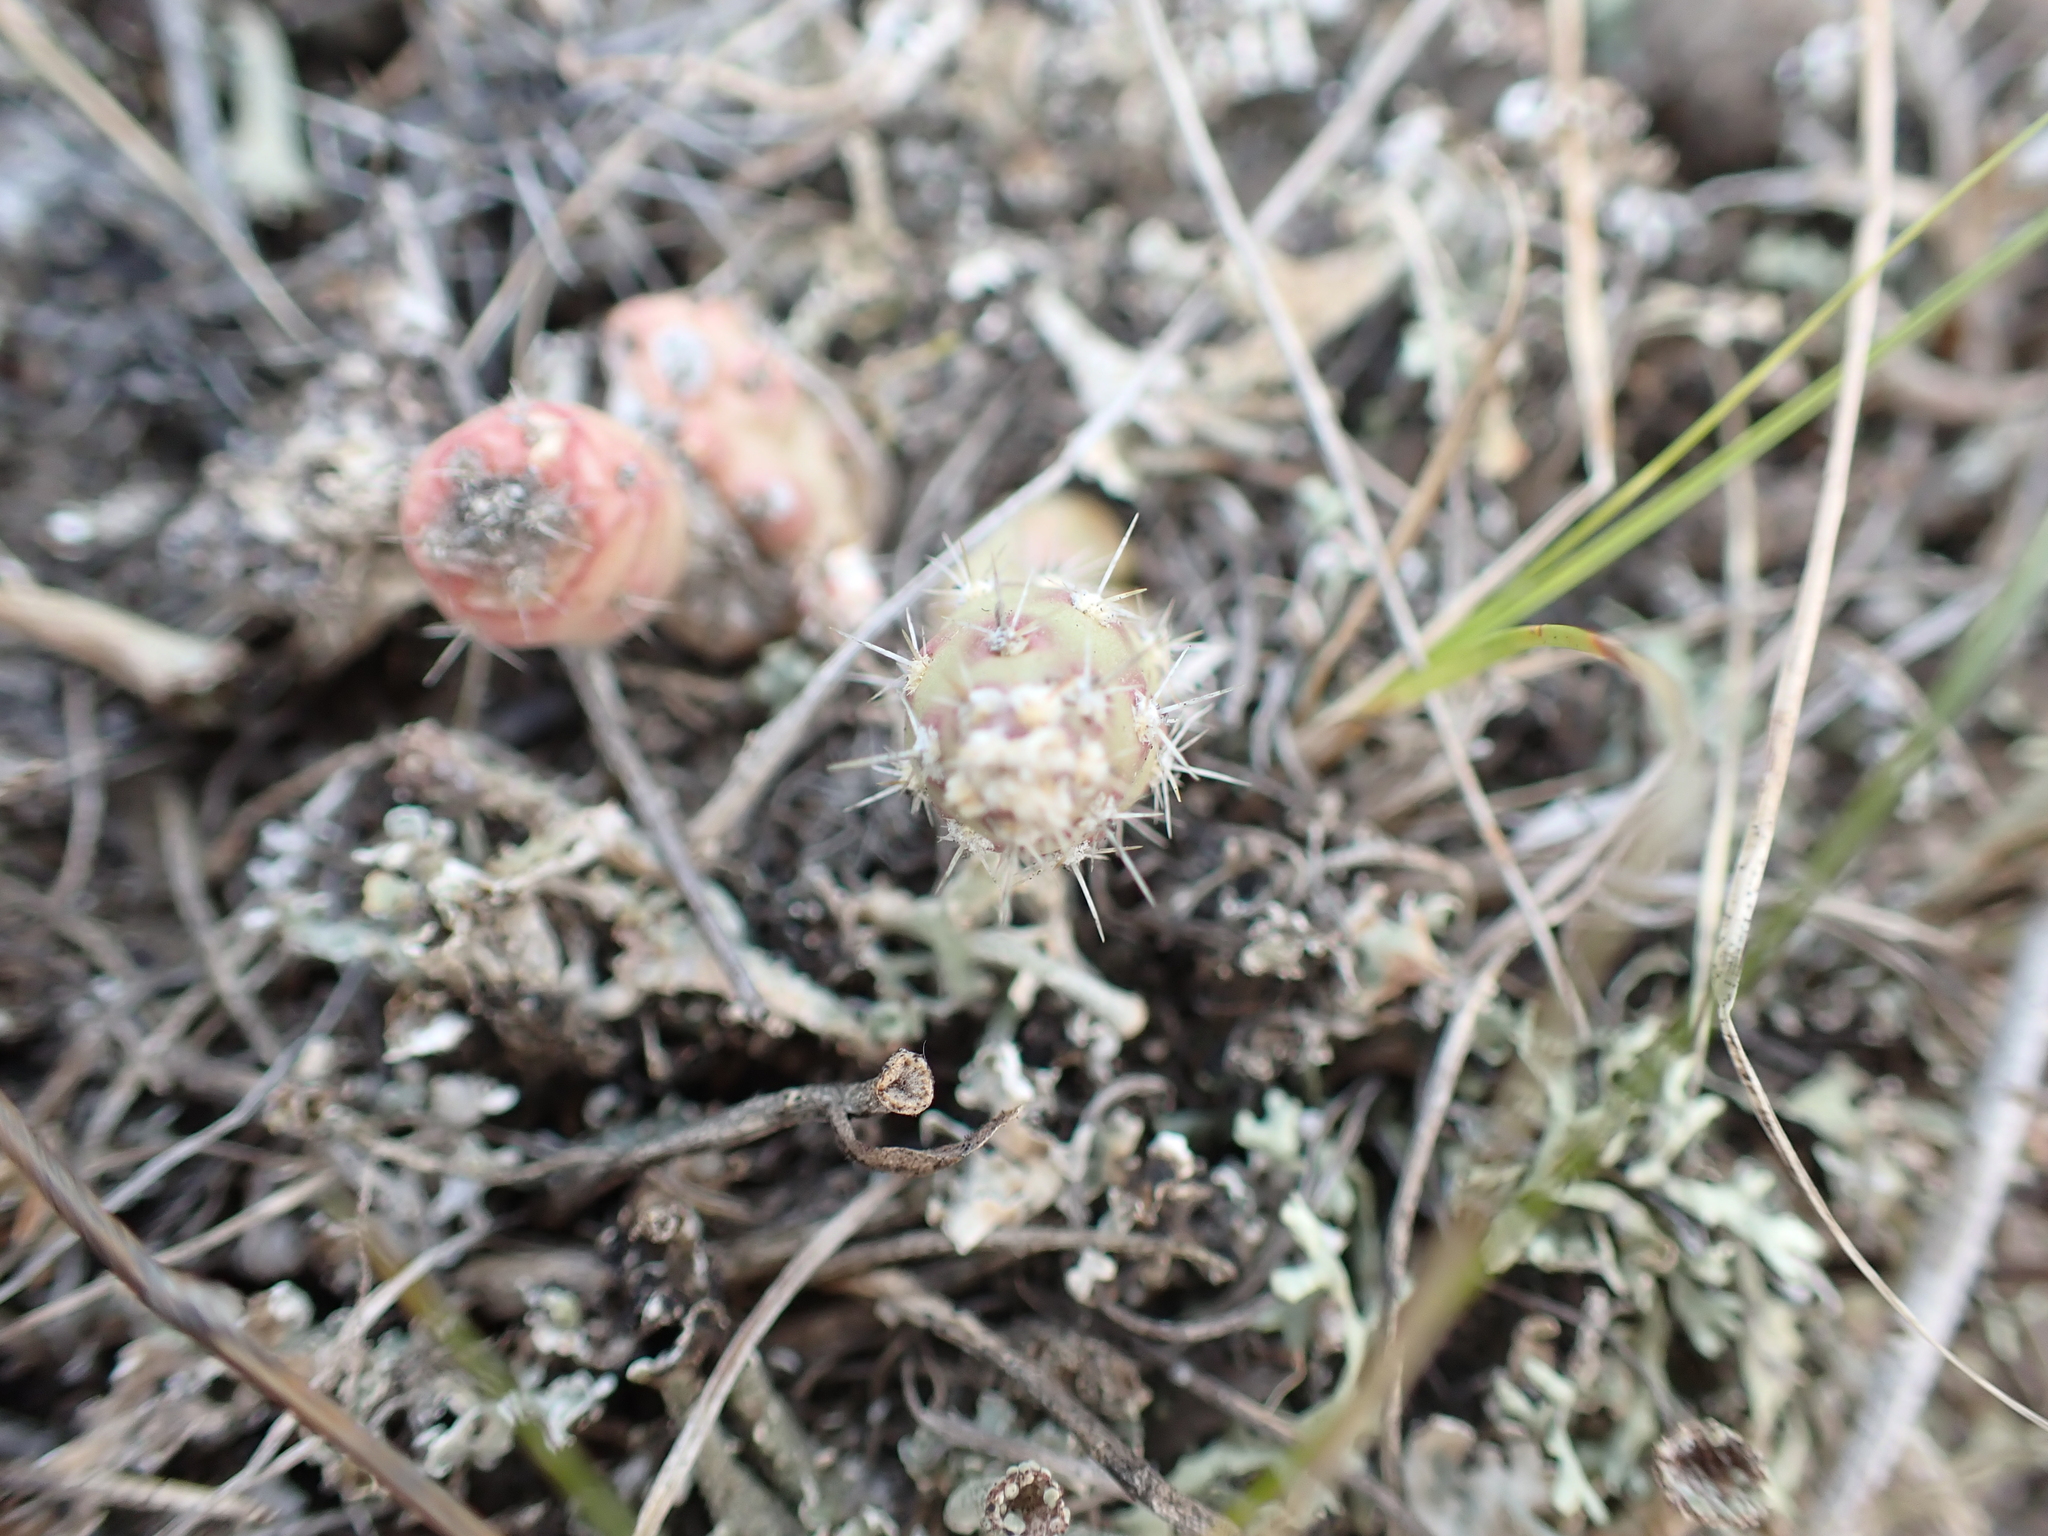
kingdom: Plantae
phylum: Tracheophyta
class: Magnoliopsida
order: Caryophyllales
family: Cactaceae
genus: Opuntia
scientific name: Opuntia fragilis
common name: Brittle cactus
